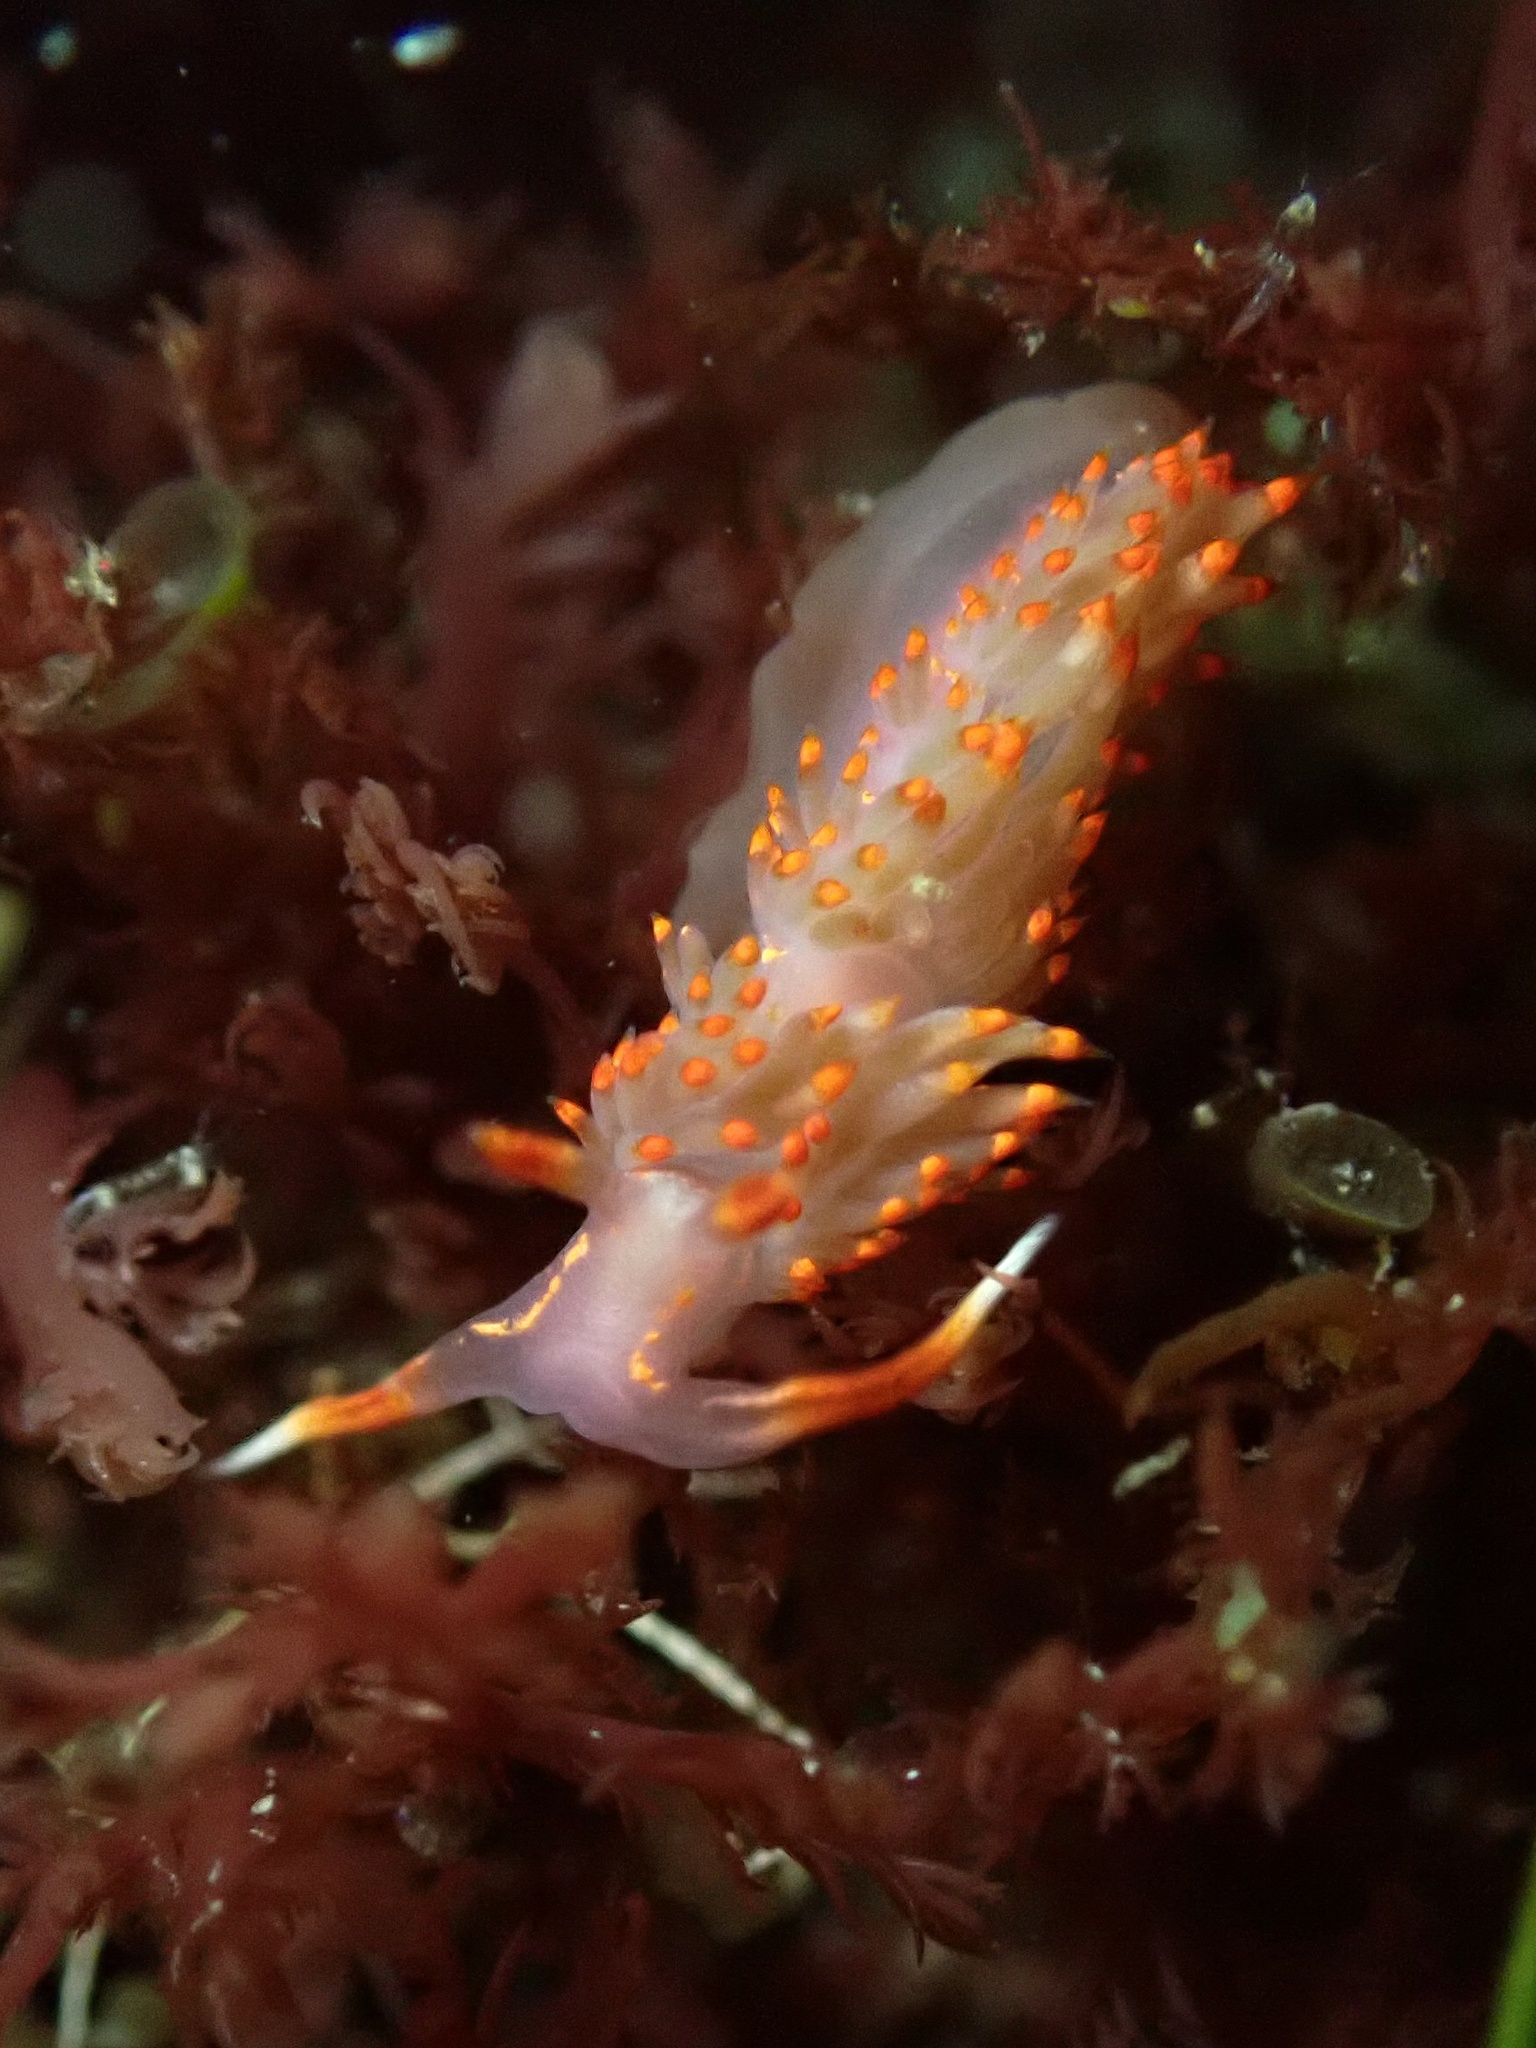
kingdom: Animalia
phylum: Mollusca
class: Gastropoda
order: Nudibranchia
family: Facelinidae
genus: Austraeolis
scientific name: Austraeolis stearnsi
